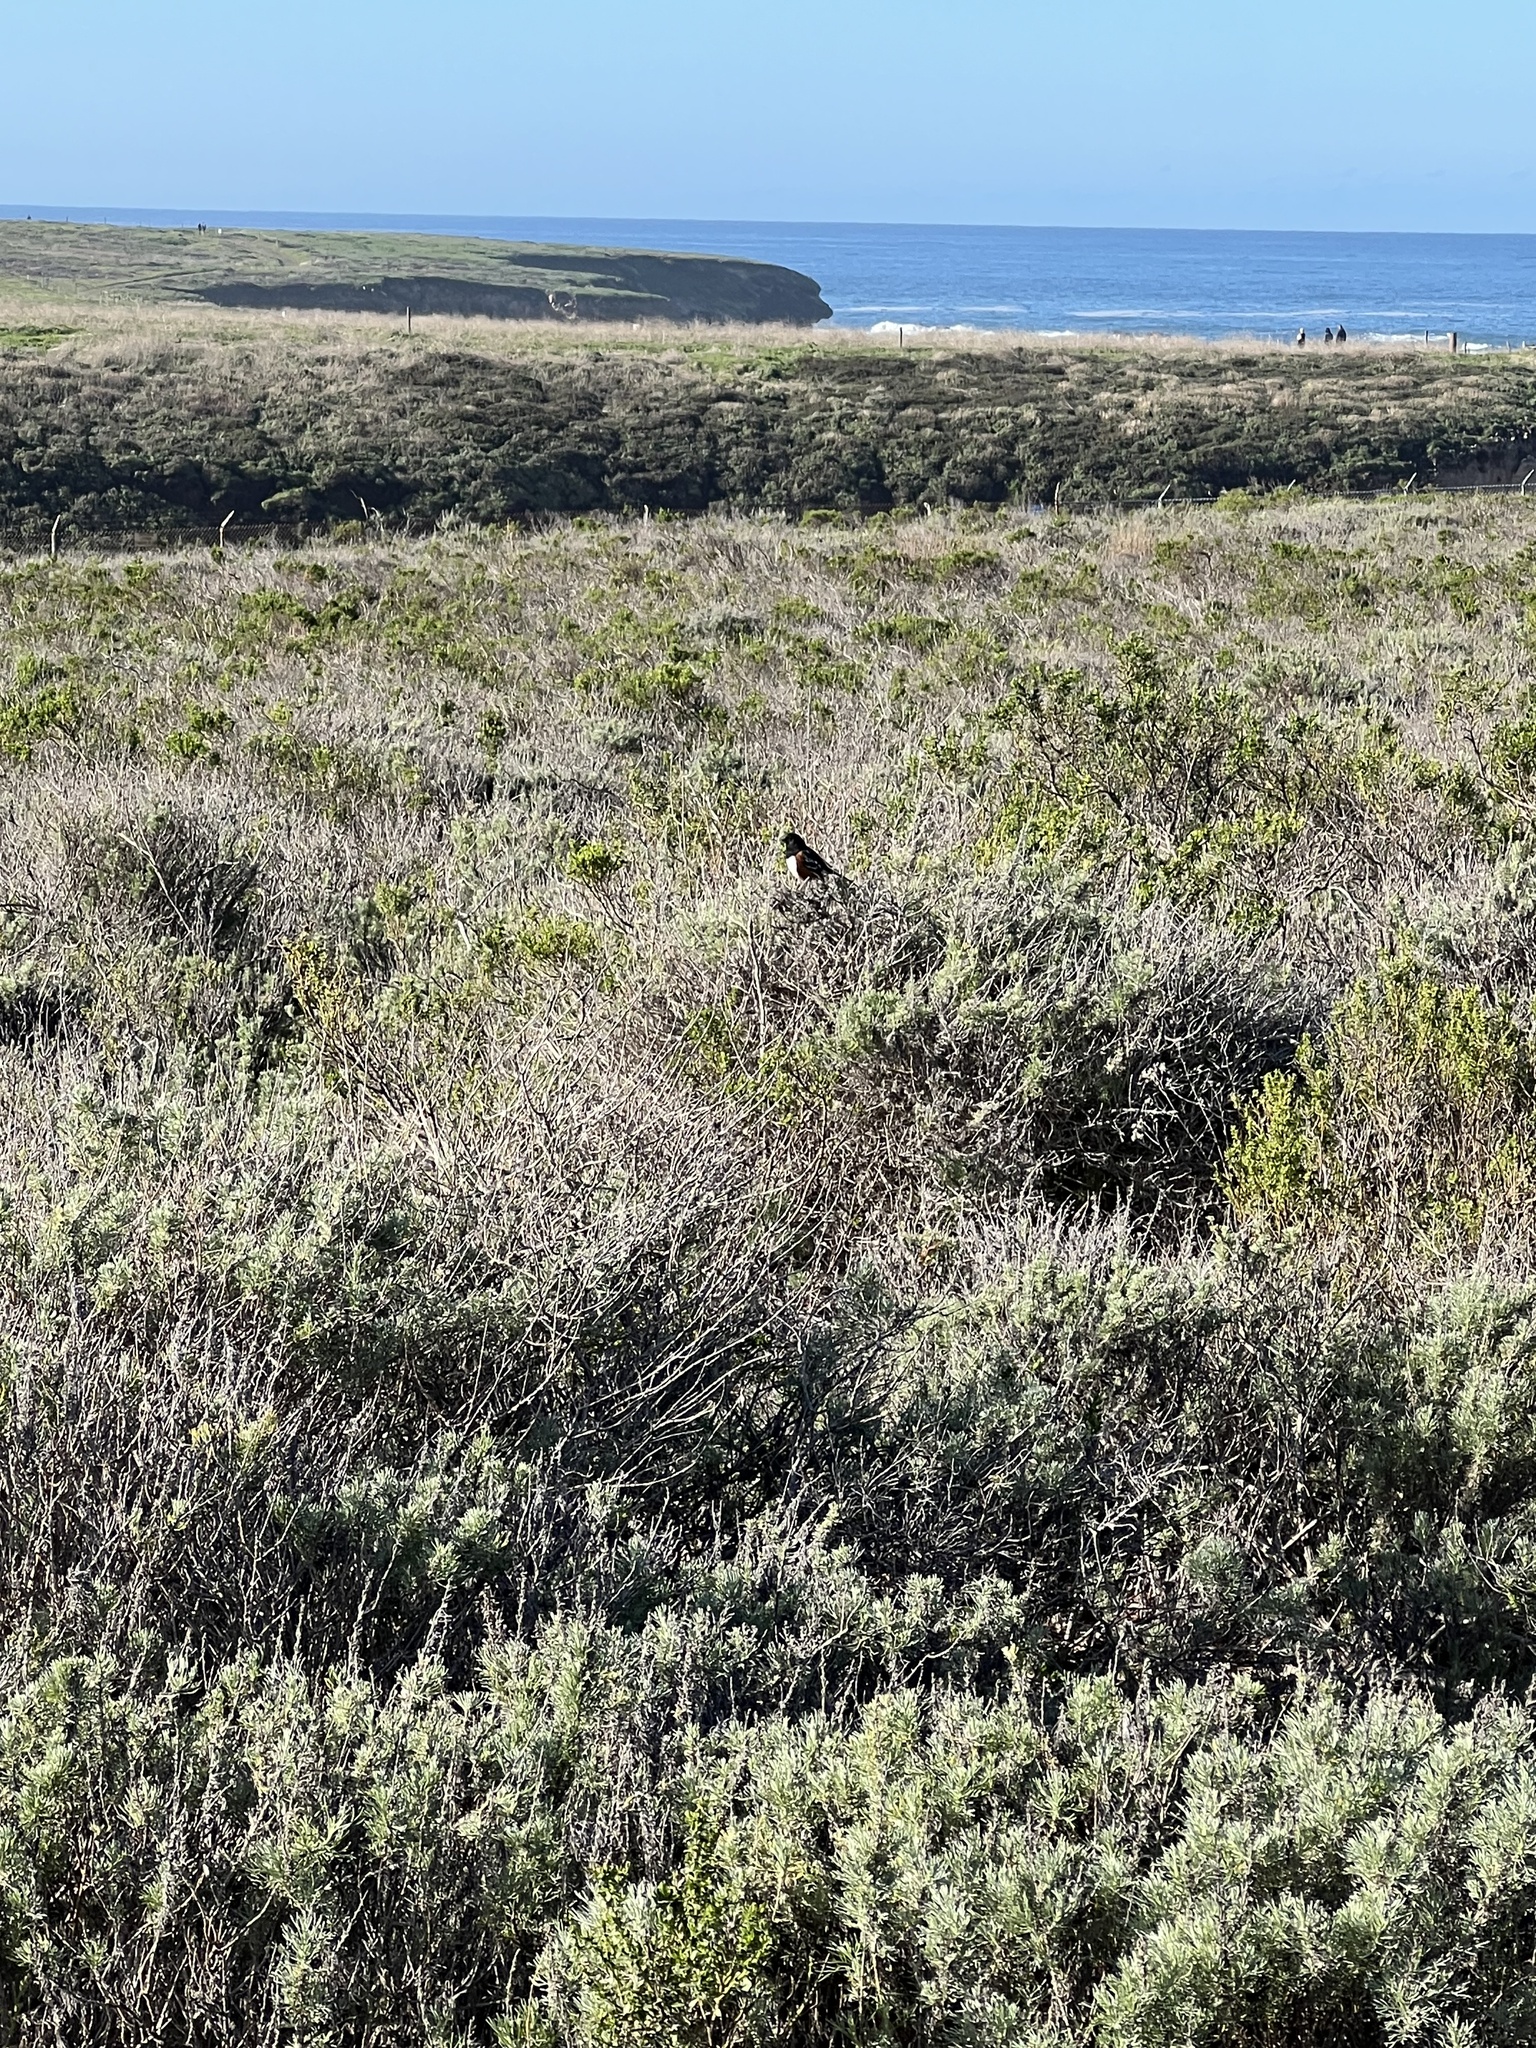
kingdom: Animalia
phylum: Chordata
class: Aves
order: Passeriformes
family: Passerellidae
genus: Pipilo
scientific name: Pipilo maculatus
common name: Spotted towhee
